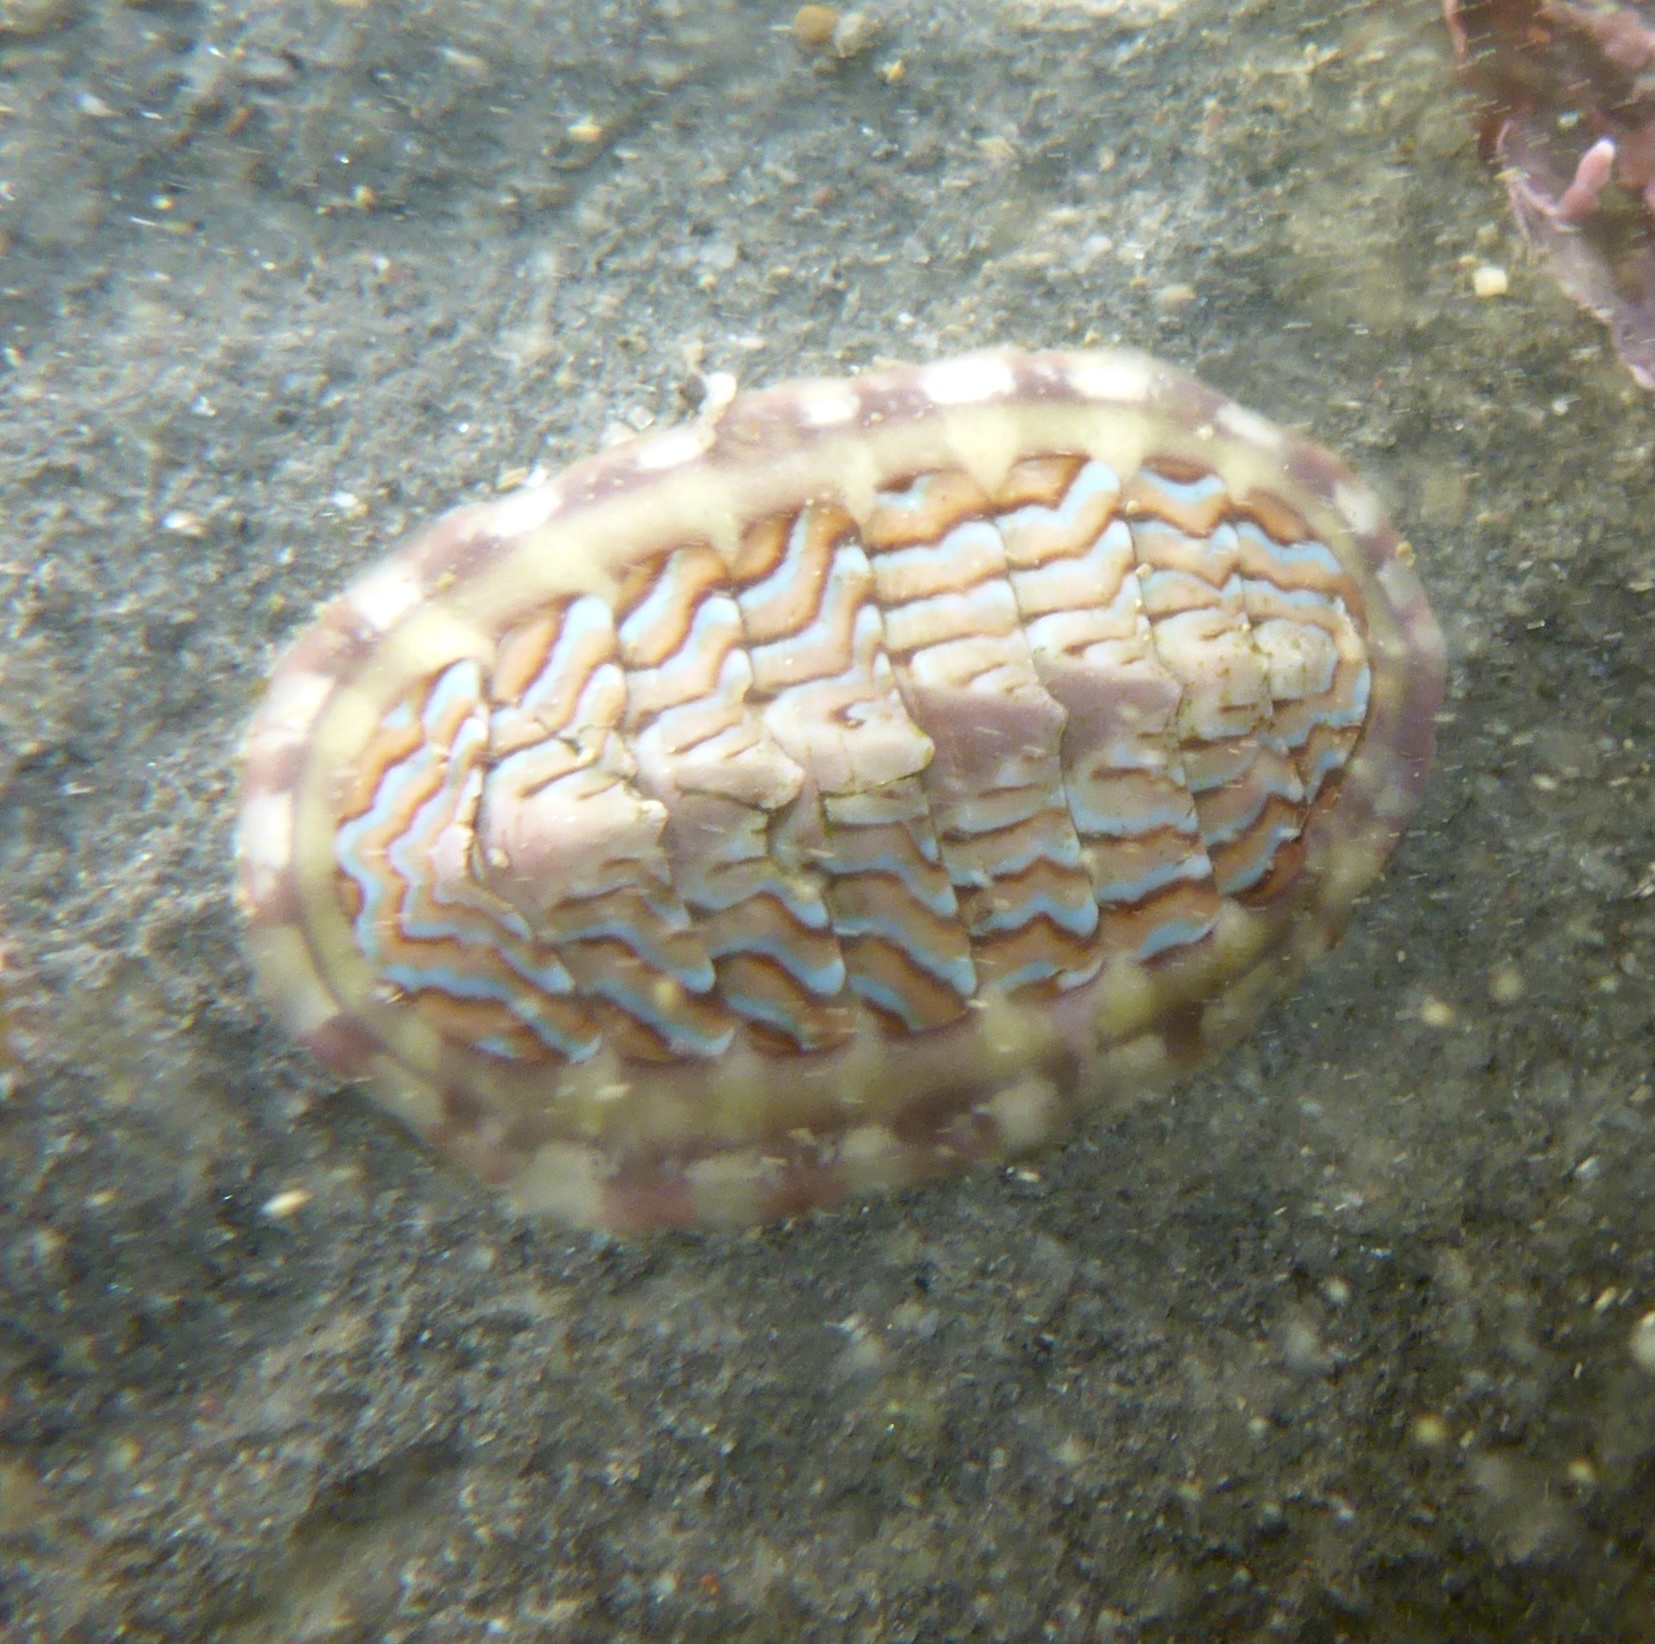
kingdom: Animalia
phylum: Mollusca
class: Polyplacophora
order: Chitonida
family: Tonicellidae
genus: Tonicella
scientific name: Tonicella lokii
